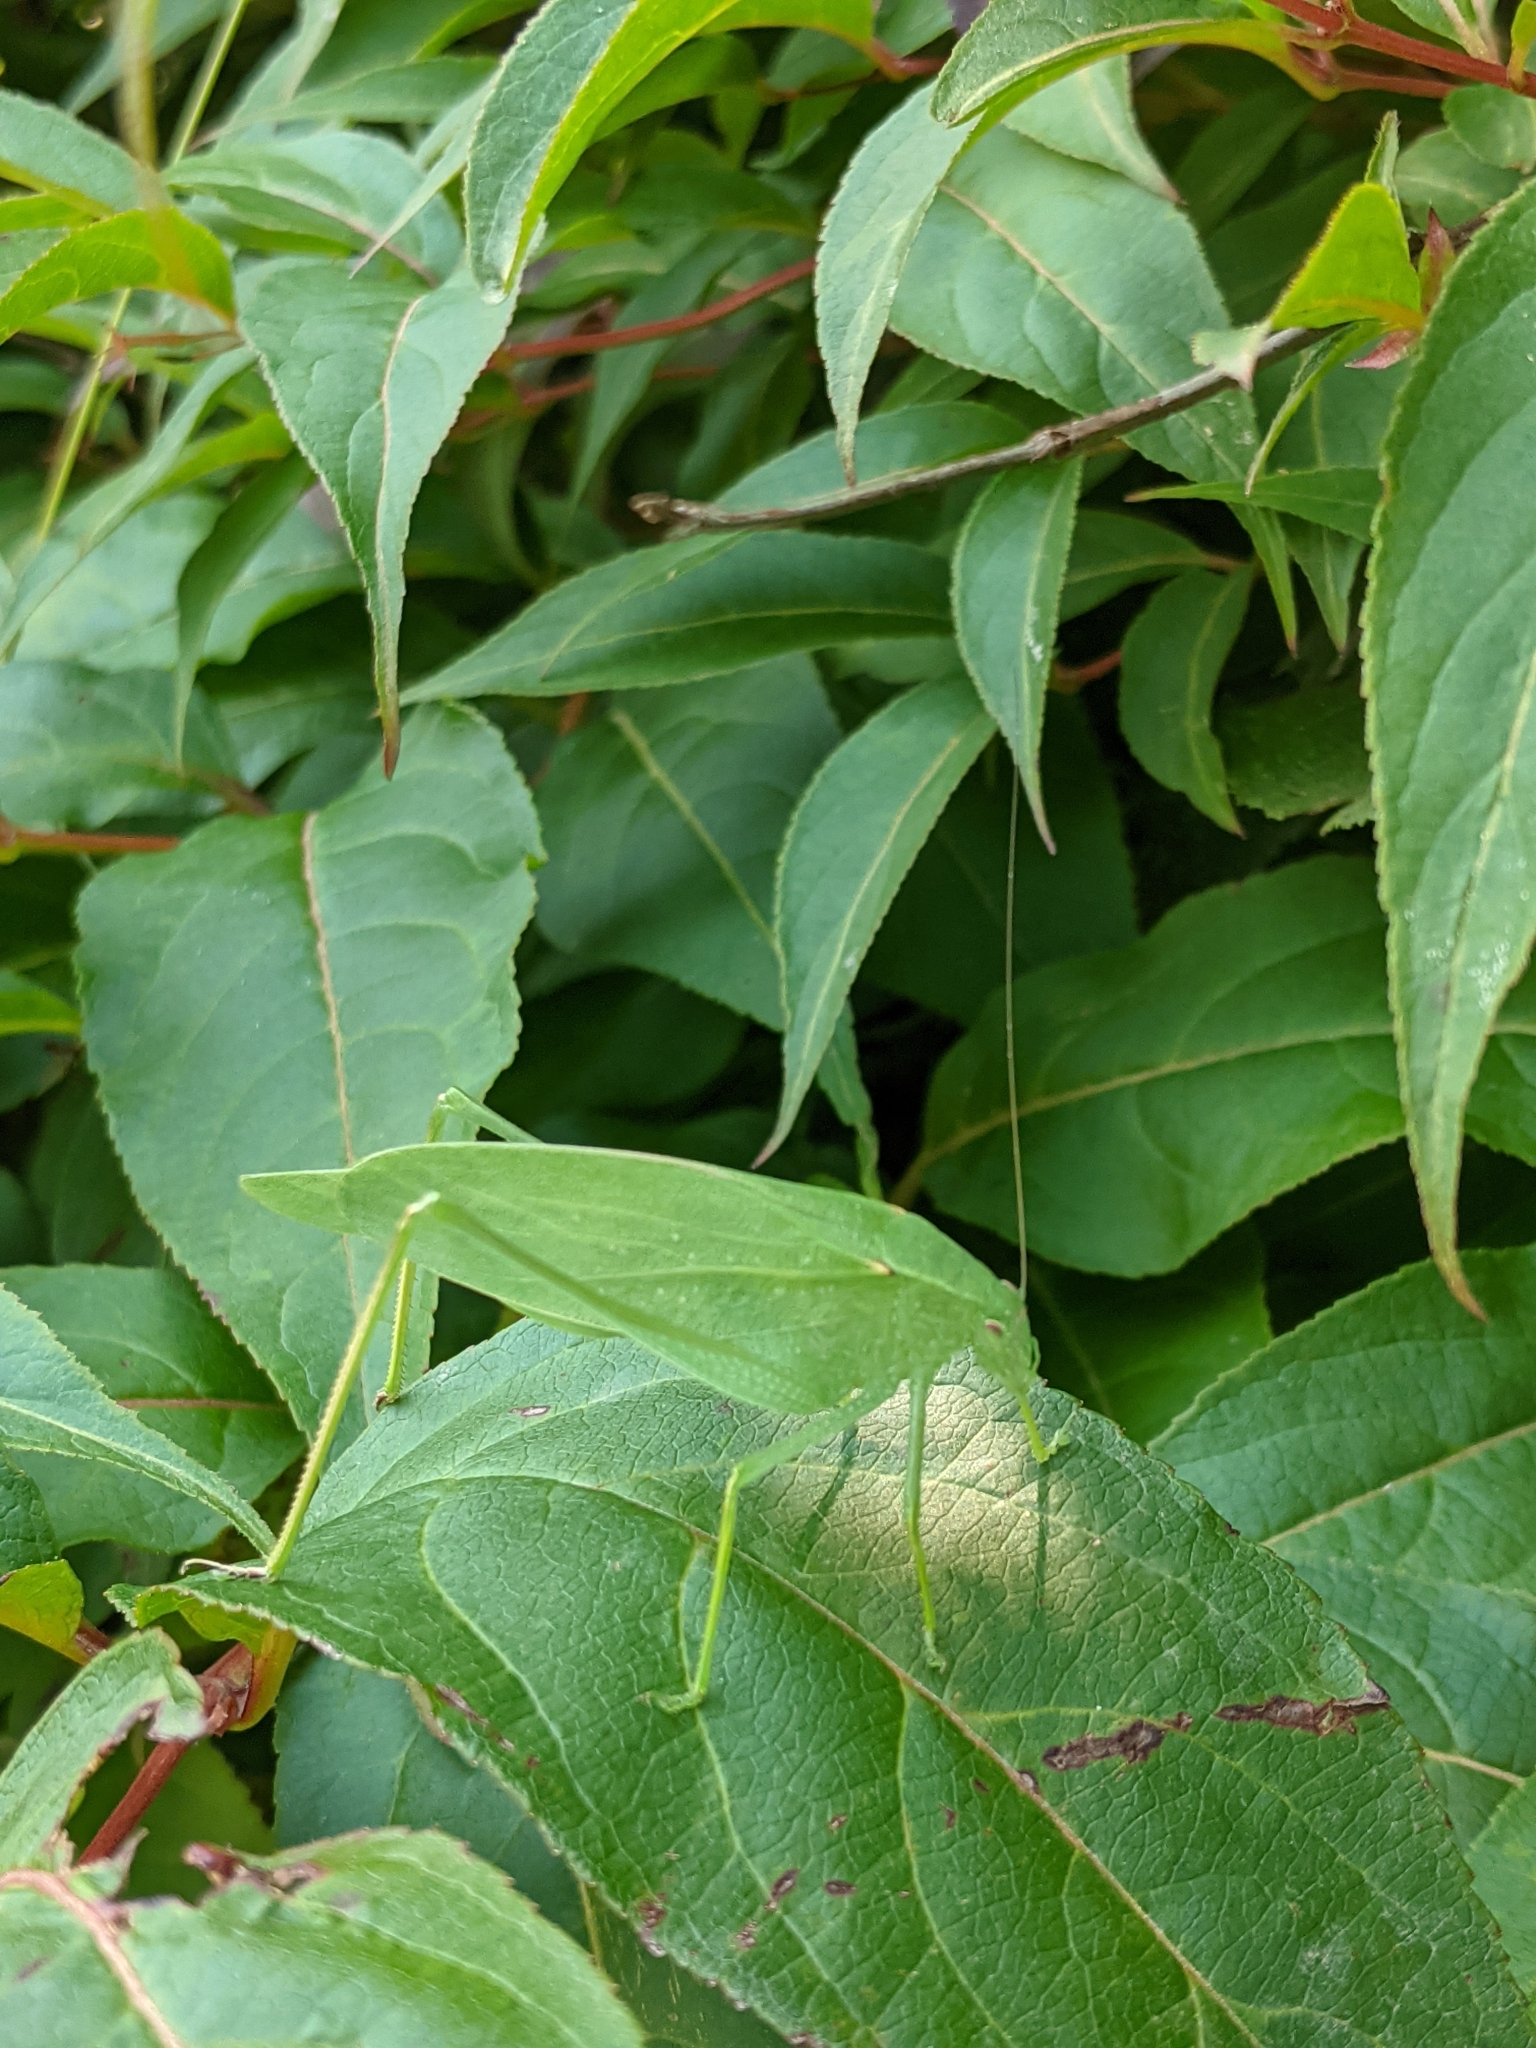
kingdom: Animalia
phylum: Arthropoda
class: Insecta
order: Orthoptera
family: Tettigoniidae
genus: Amblycorypha
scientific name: Amblycorypha oblongifolia
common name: Oblong-winged katydid
